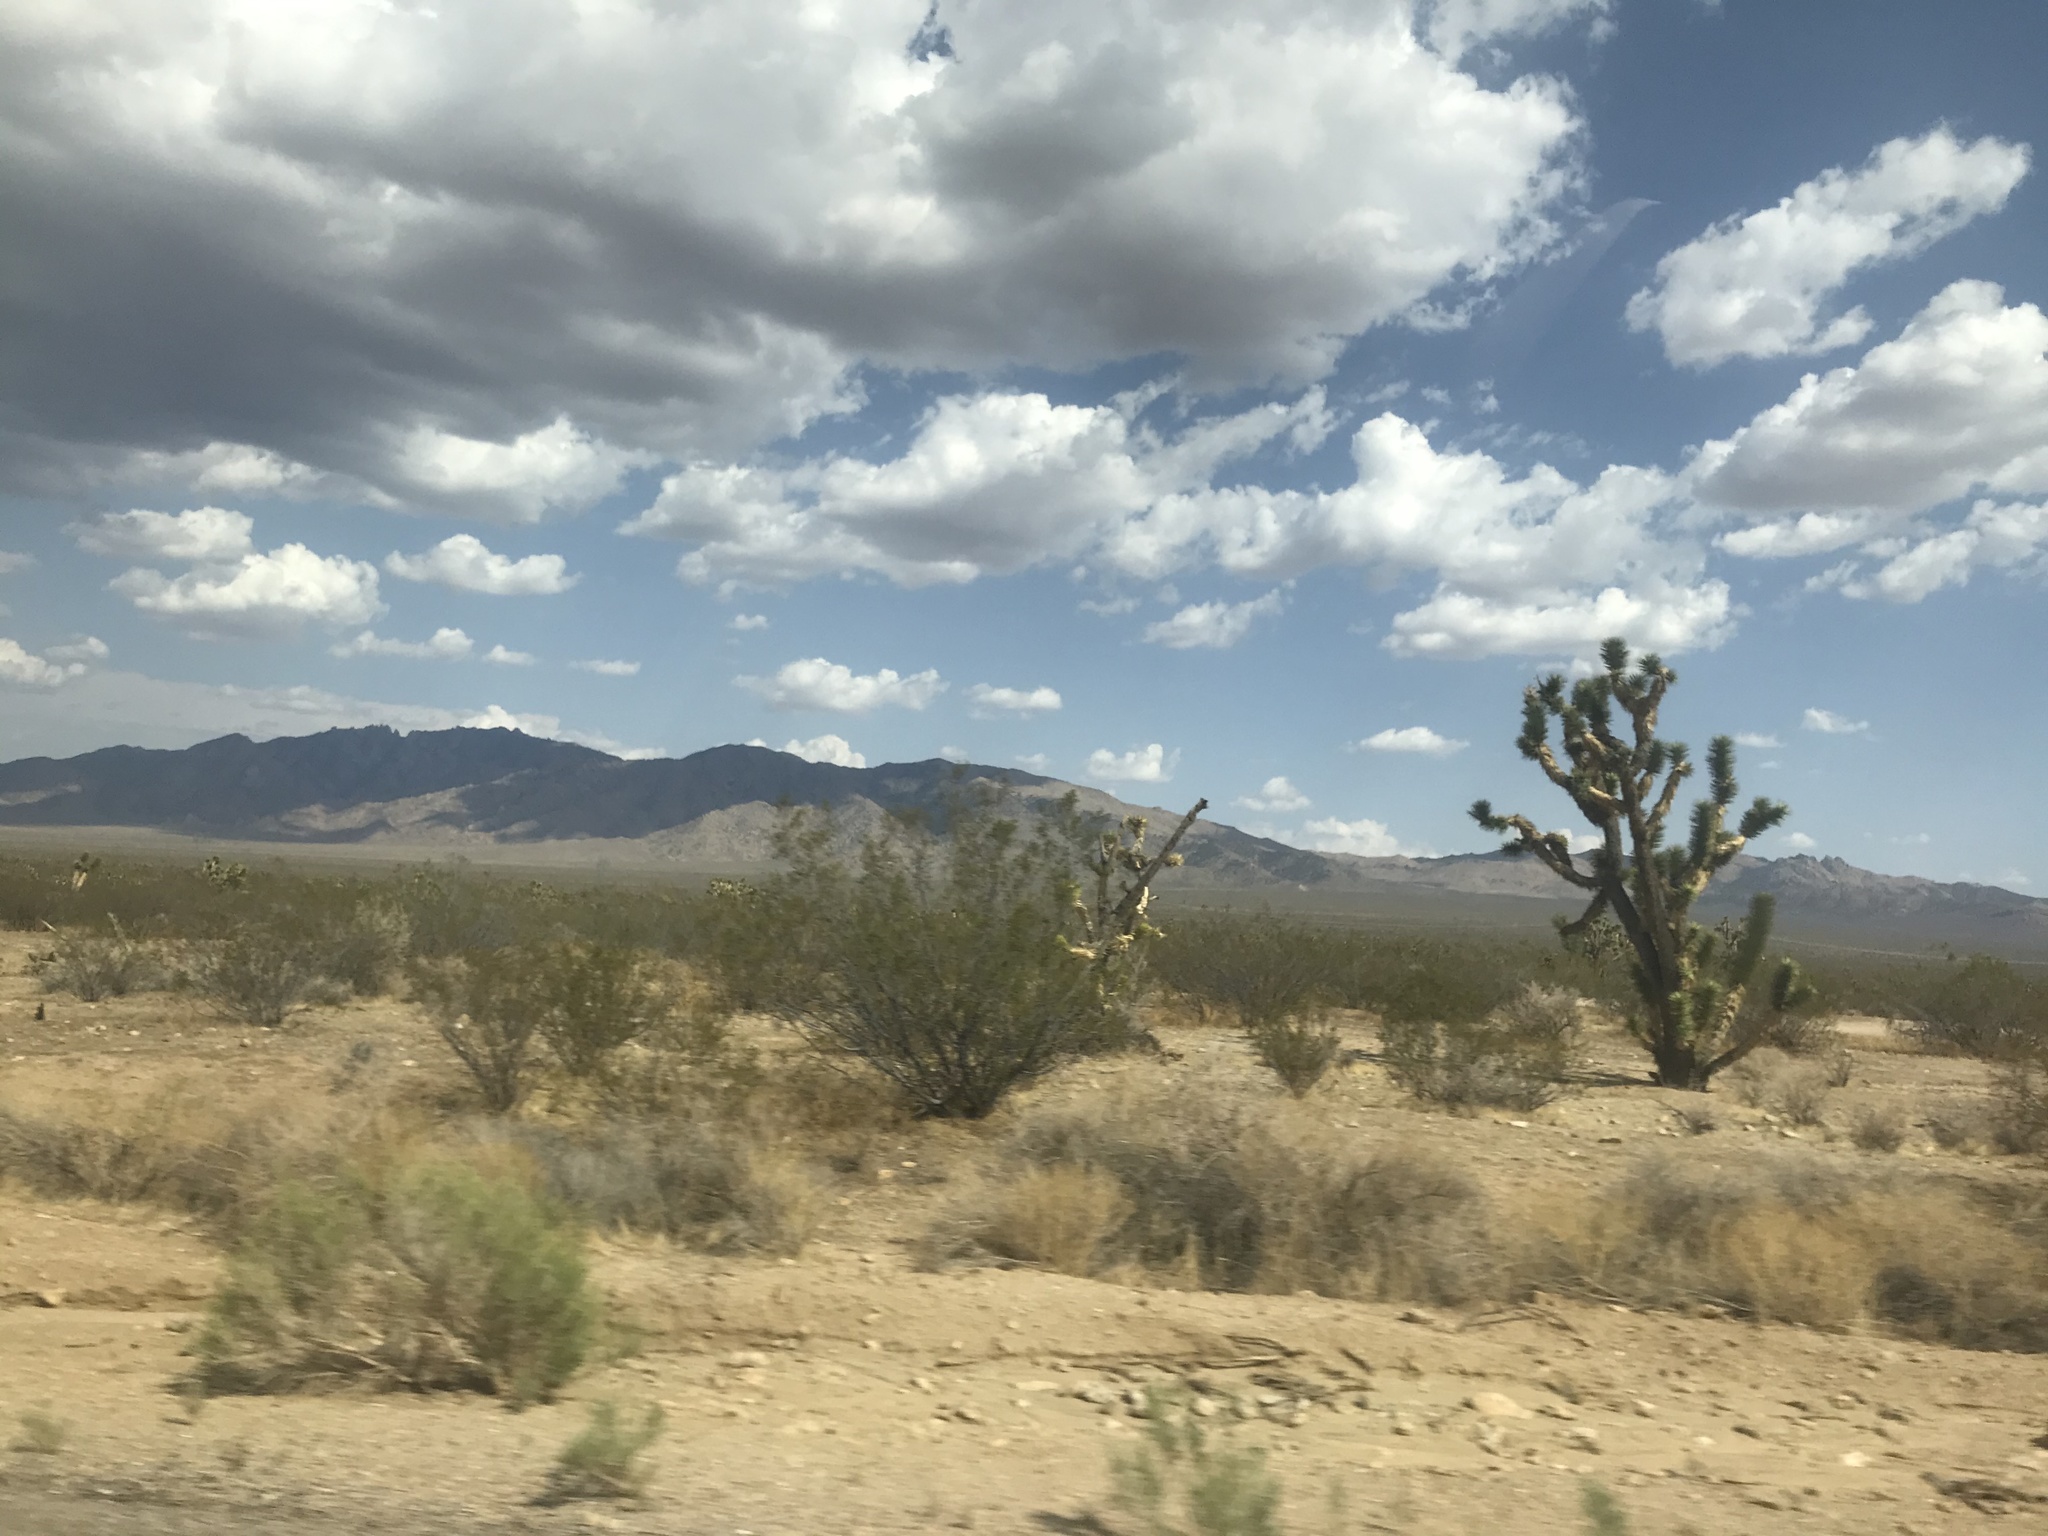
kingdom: Plantae
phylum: Tracheophyta
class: Liliopsida
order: Asparagales
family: Asparagaceae
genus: Yucca
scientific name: Yucca brevifolia
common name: Joshua tree
